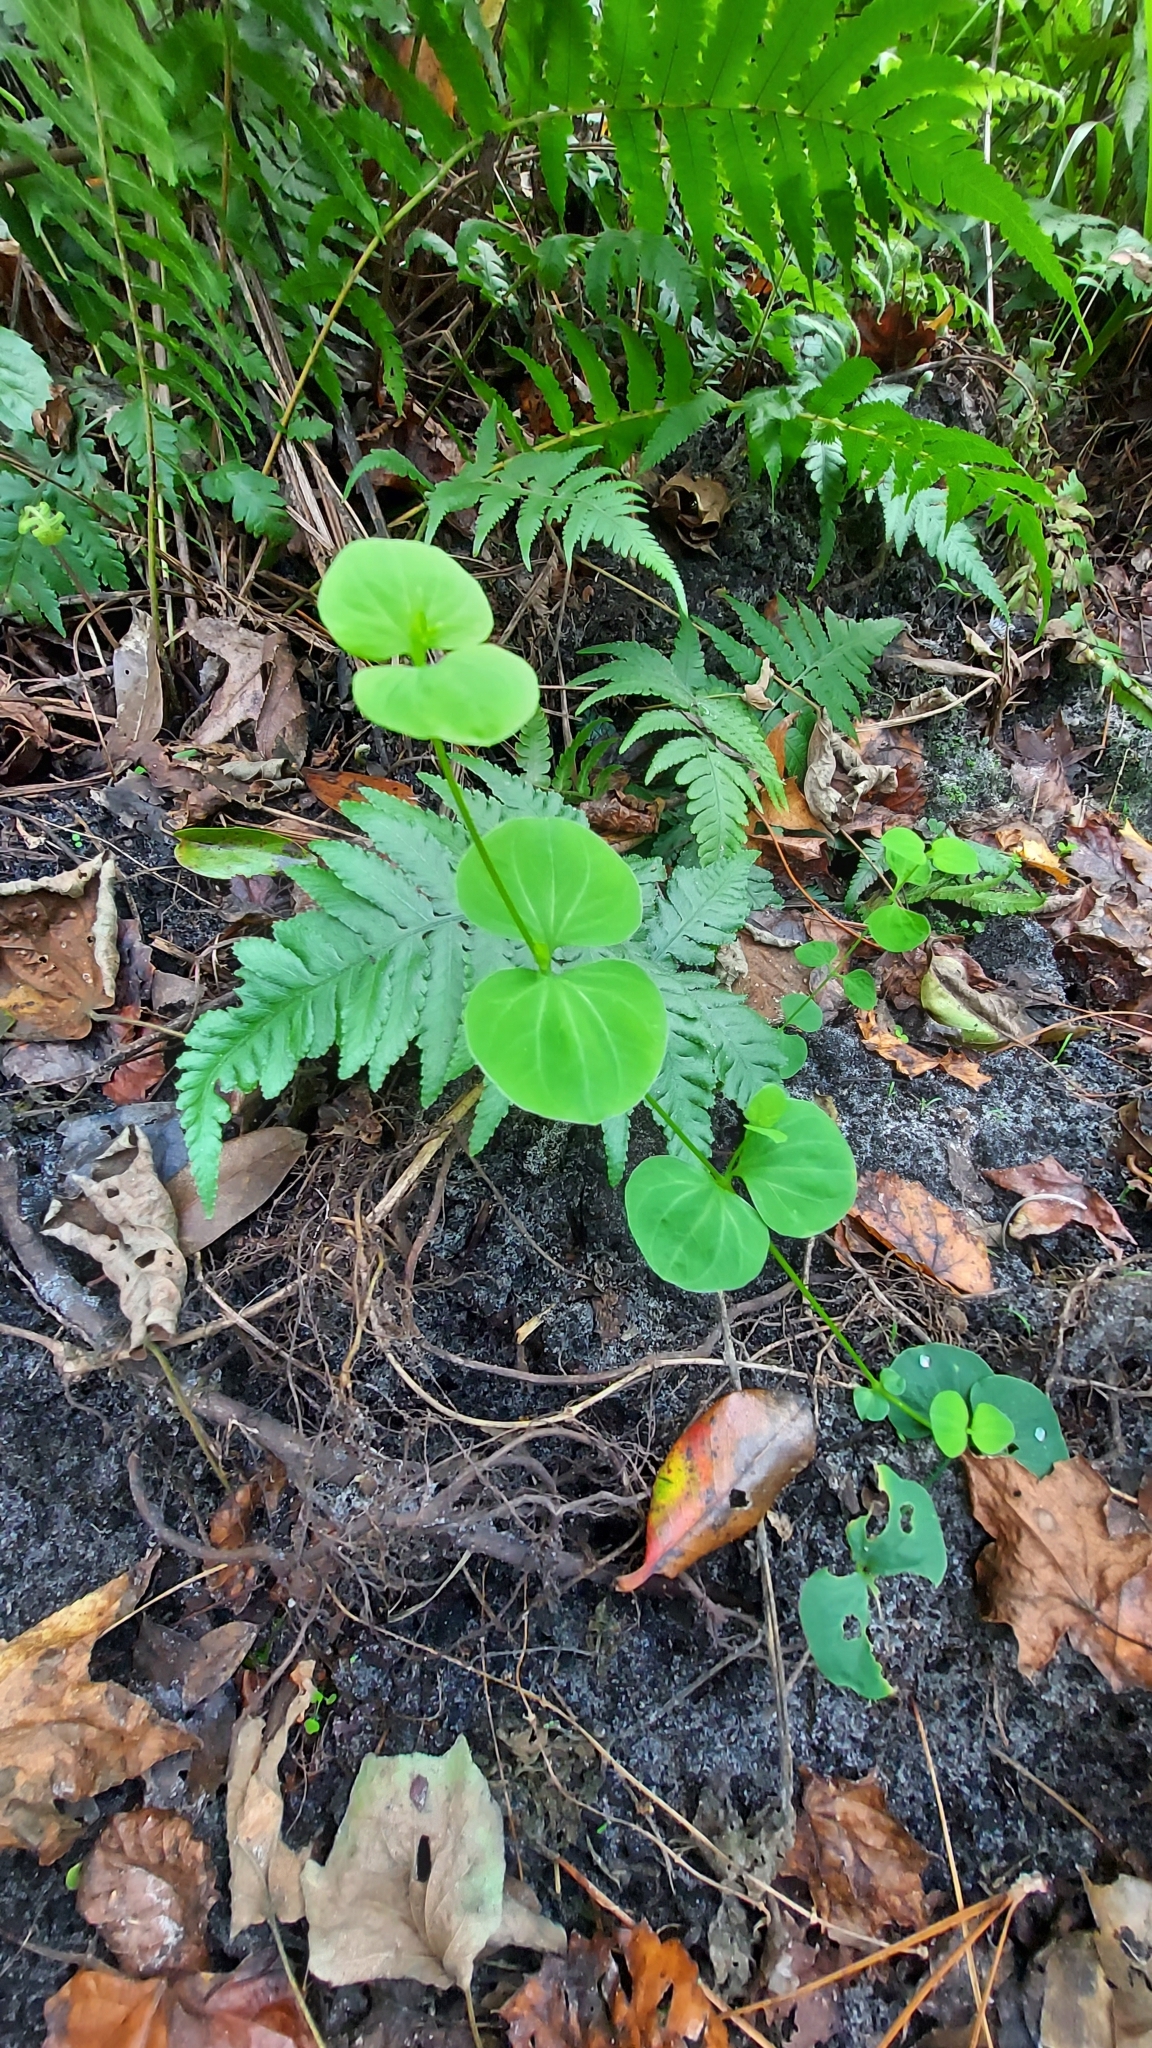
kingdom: Plantae
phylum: Tracheophyta
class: Magnoliopsida
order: Caryophyllales
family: Caryophyllaceae
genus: Drymaria
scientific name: Drymaria cordata
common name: Whitesnow
